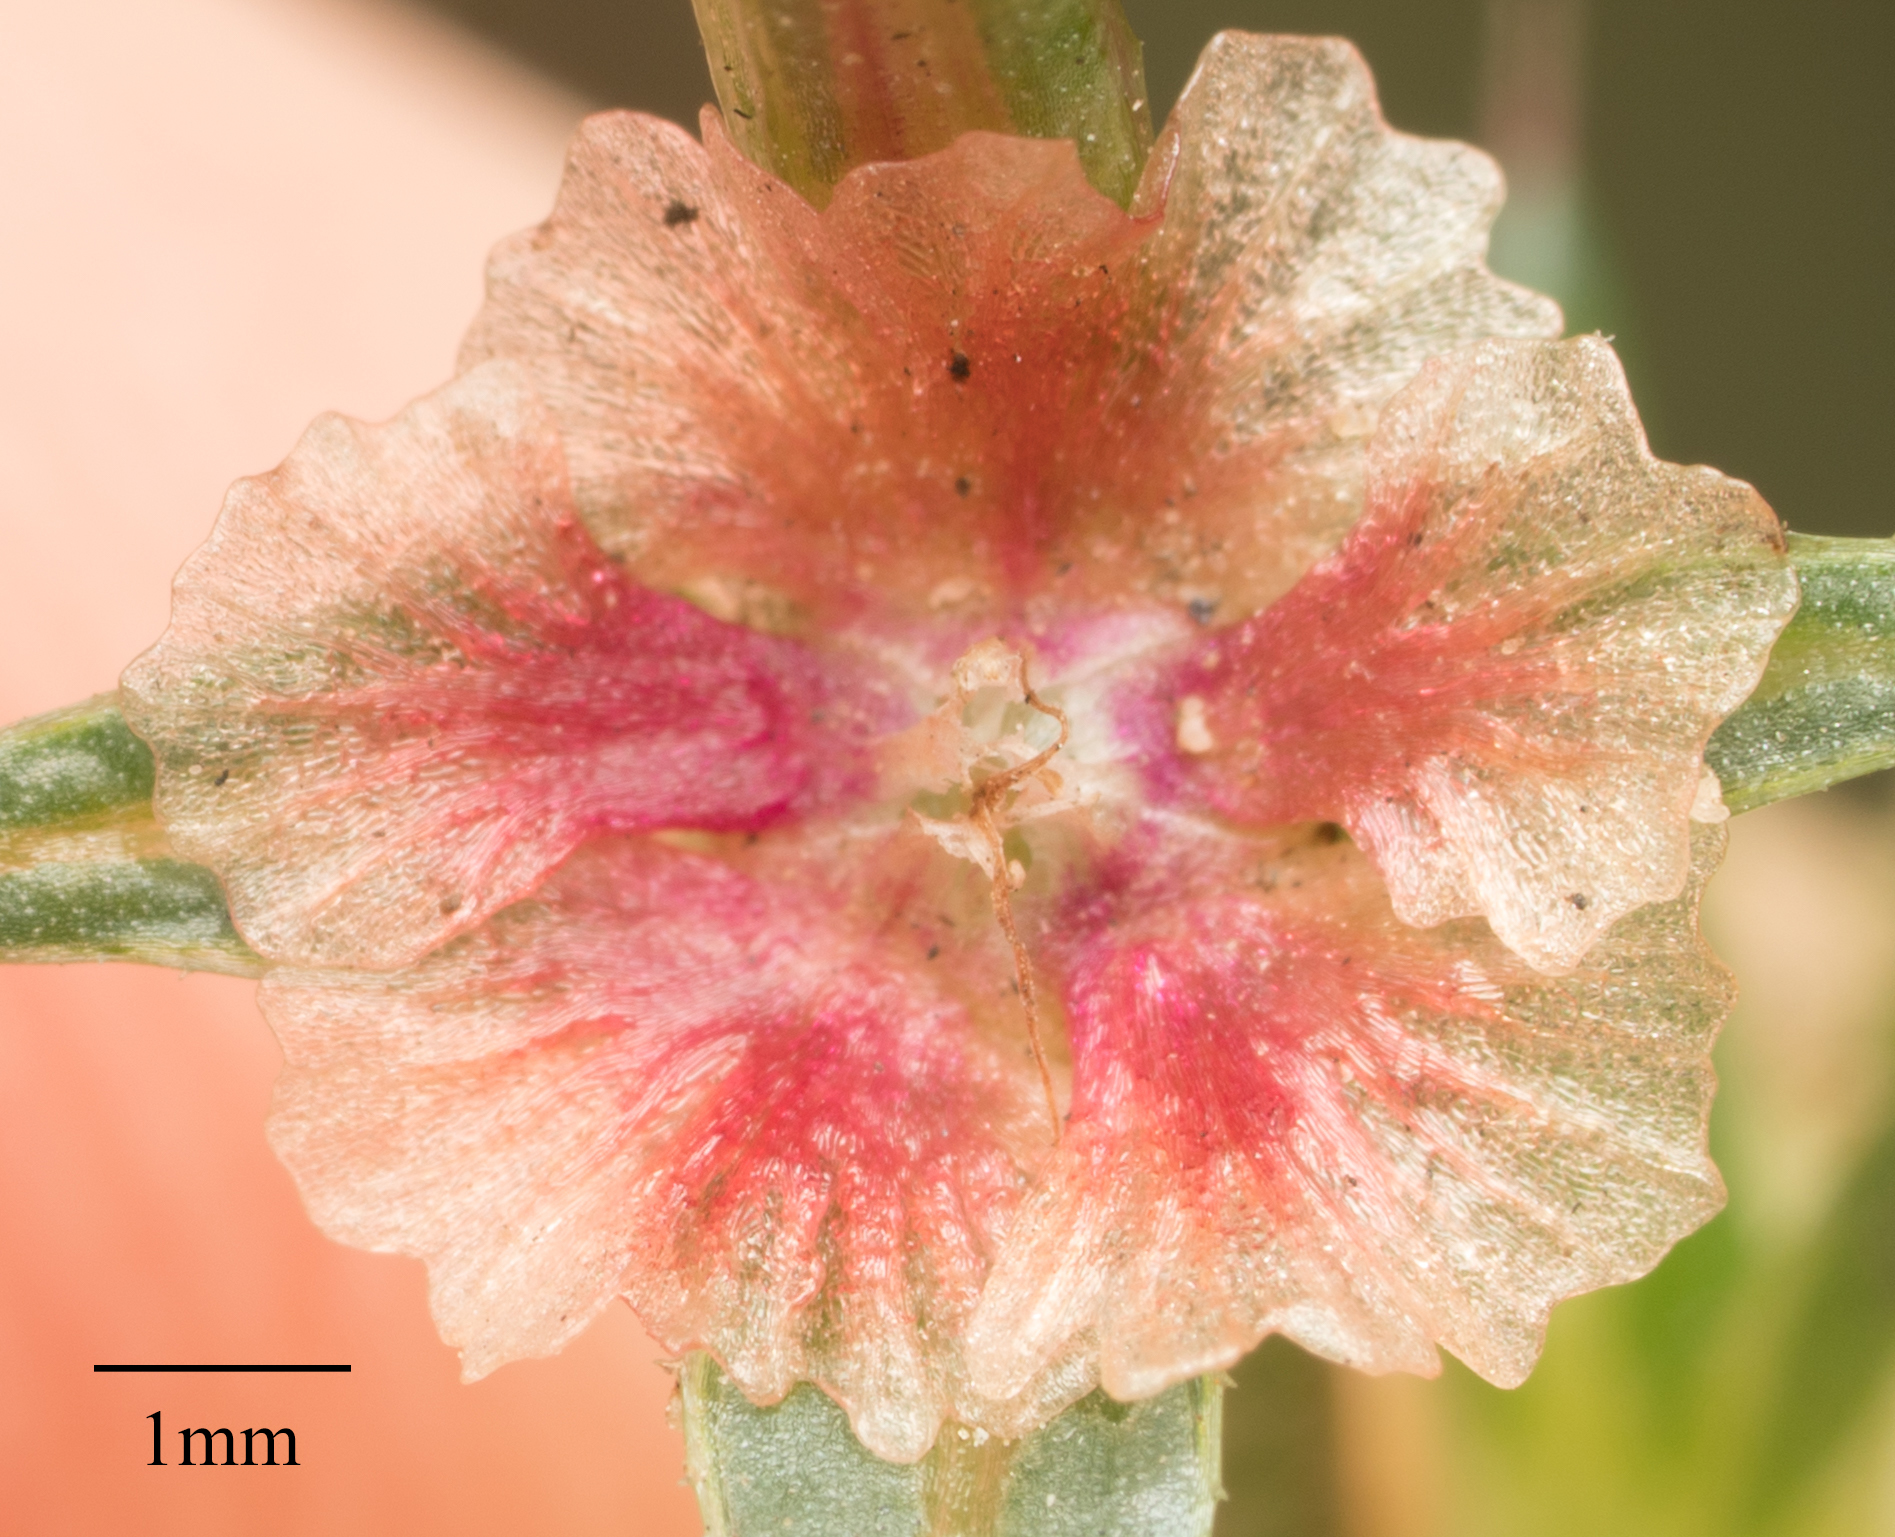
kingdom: Plantae
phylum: Tracheophyta
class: Magnoliopsida
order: Caryophyllales
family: Amaranthaceae
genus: Salsola
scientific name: Salsola australis
